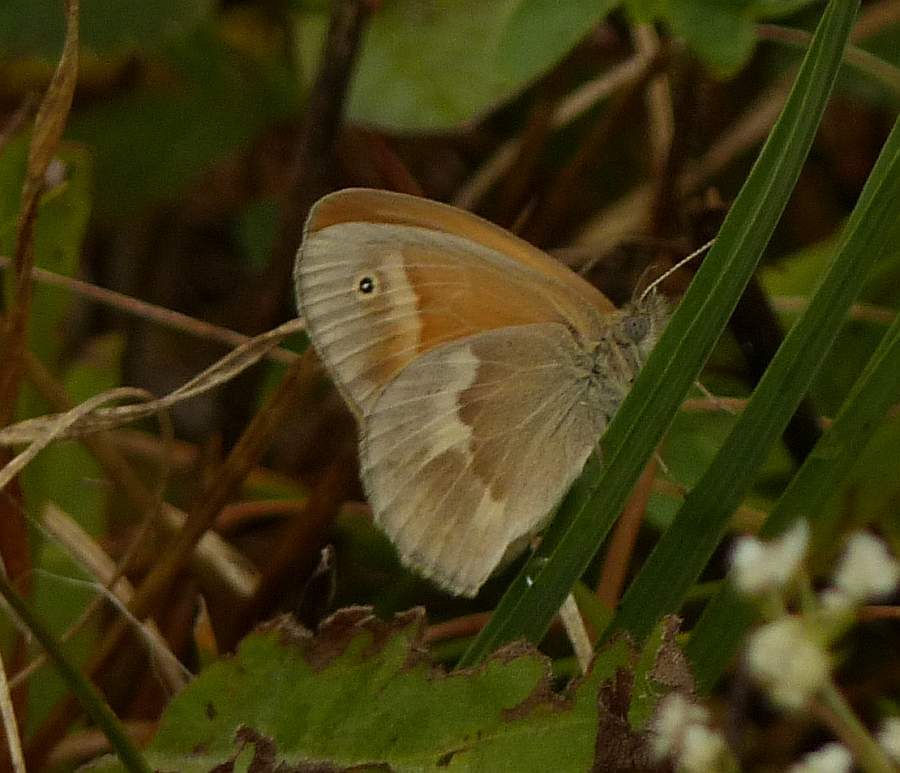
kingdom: Animalia
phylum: Arthropoda
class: Insecta
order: Lepidoptera
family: Nymphalidae
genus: Coenonympha
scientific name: Coenonympha california
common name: Common ringlet
